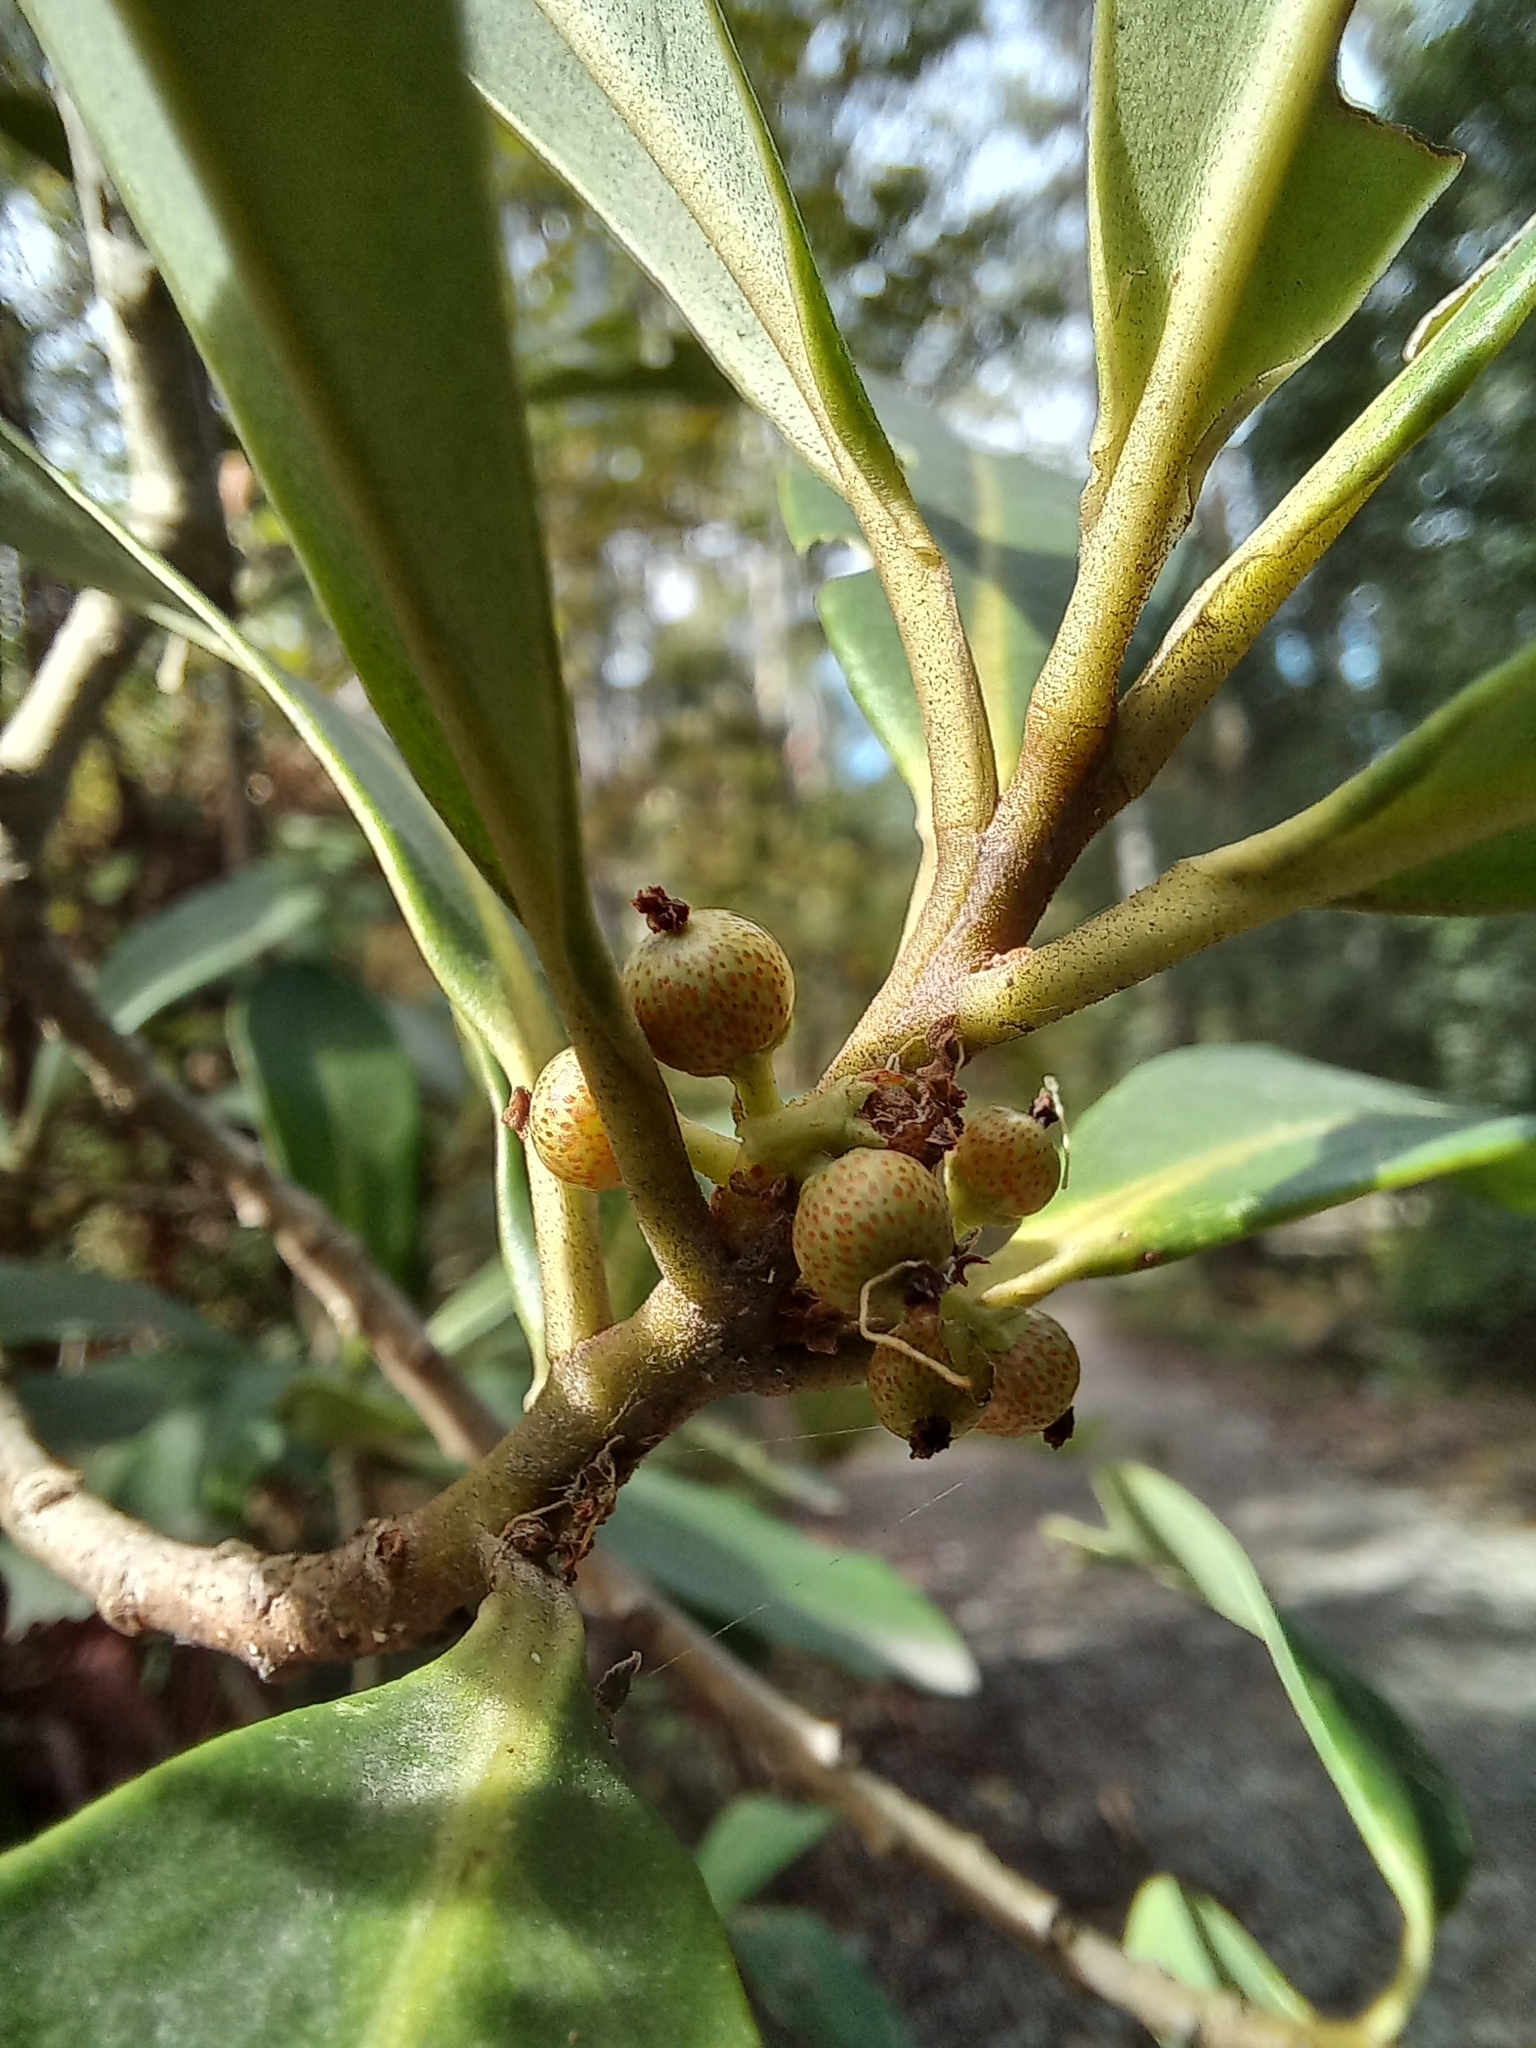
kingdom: Plantae
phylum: Tracheophyta
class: Magnoliopsida
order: Ericales
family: Primulaceae
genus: Myrsine
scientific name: Myrsine laetevirens
